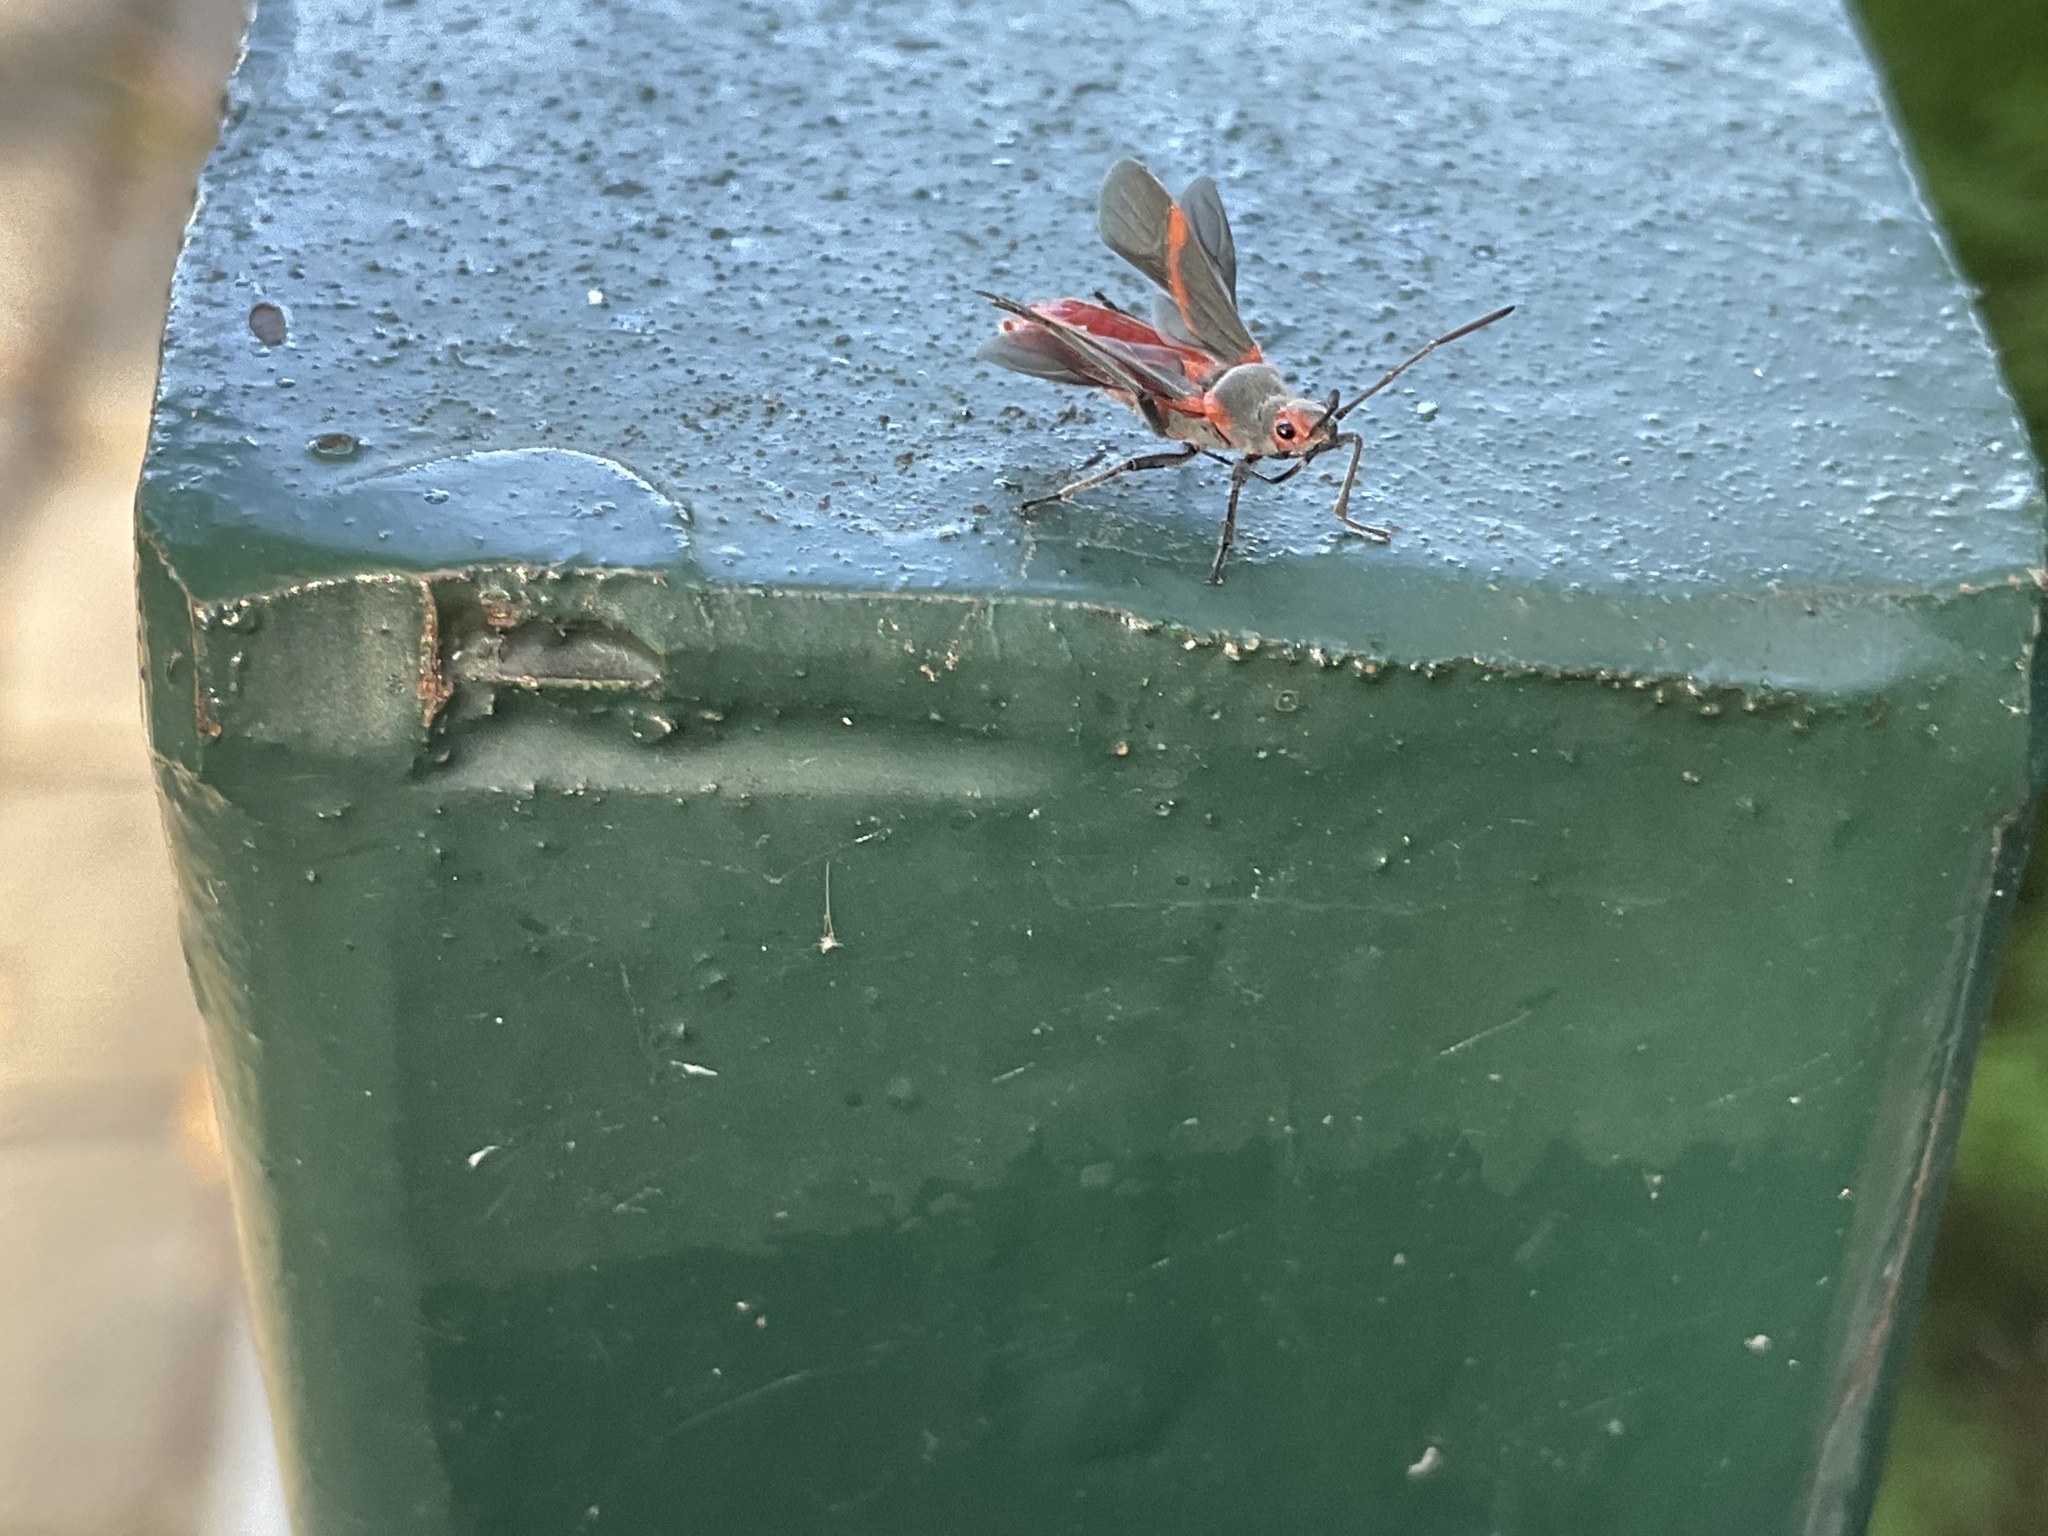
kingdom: Animalia
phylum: Arthropoda
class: Insecta
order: Hemiptera
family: Lygaeidae
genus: Caenocoris
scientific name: Caenocoris nerii
